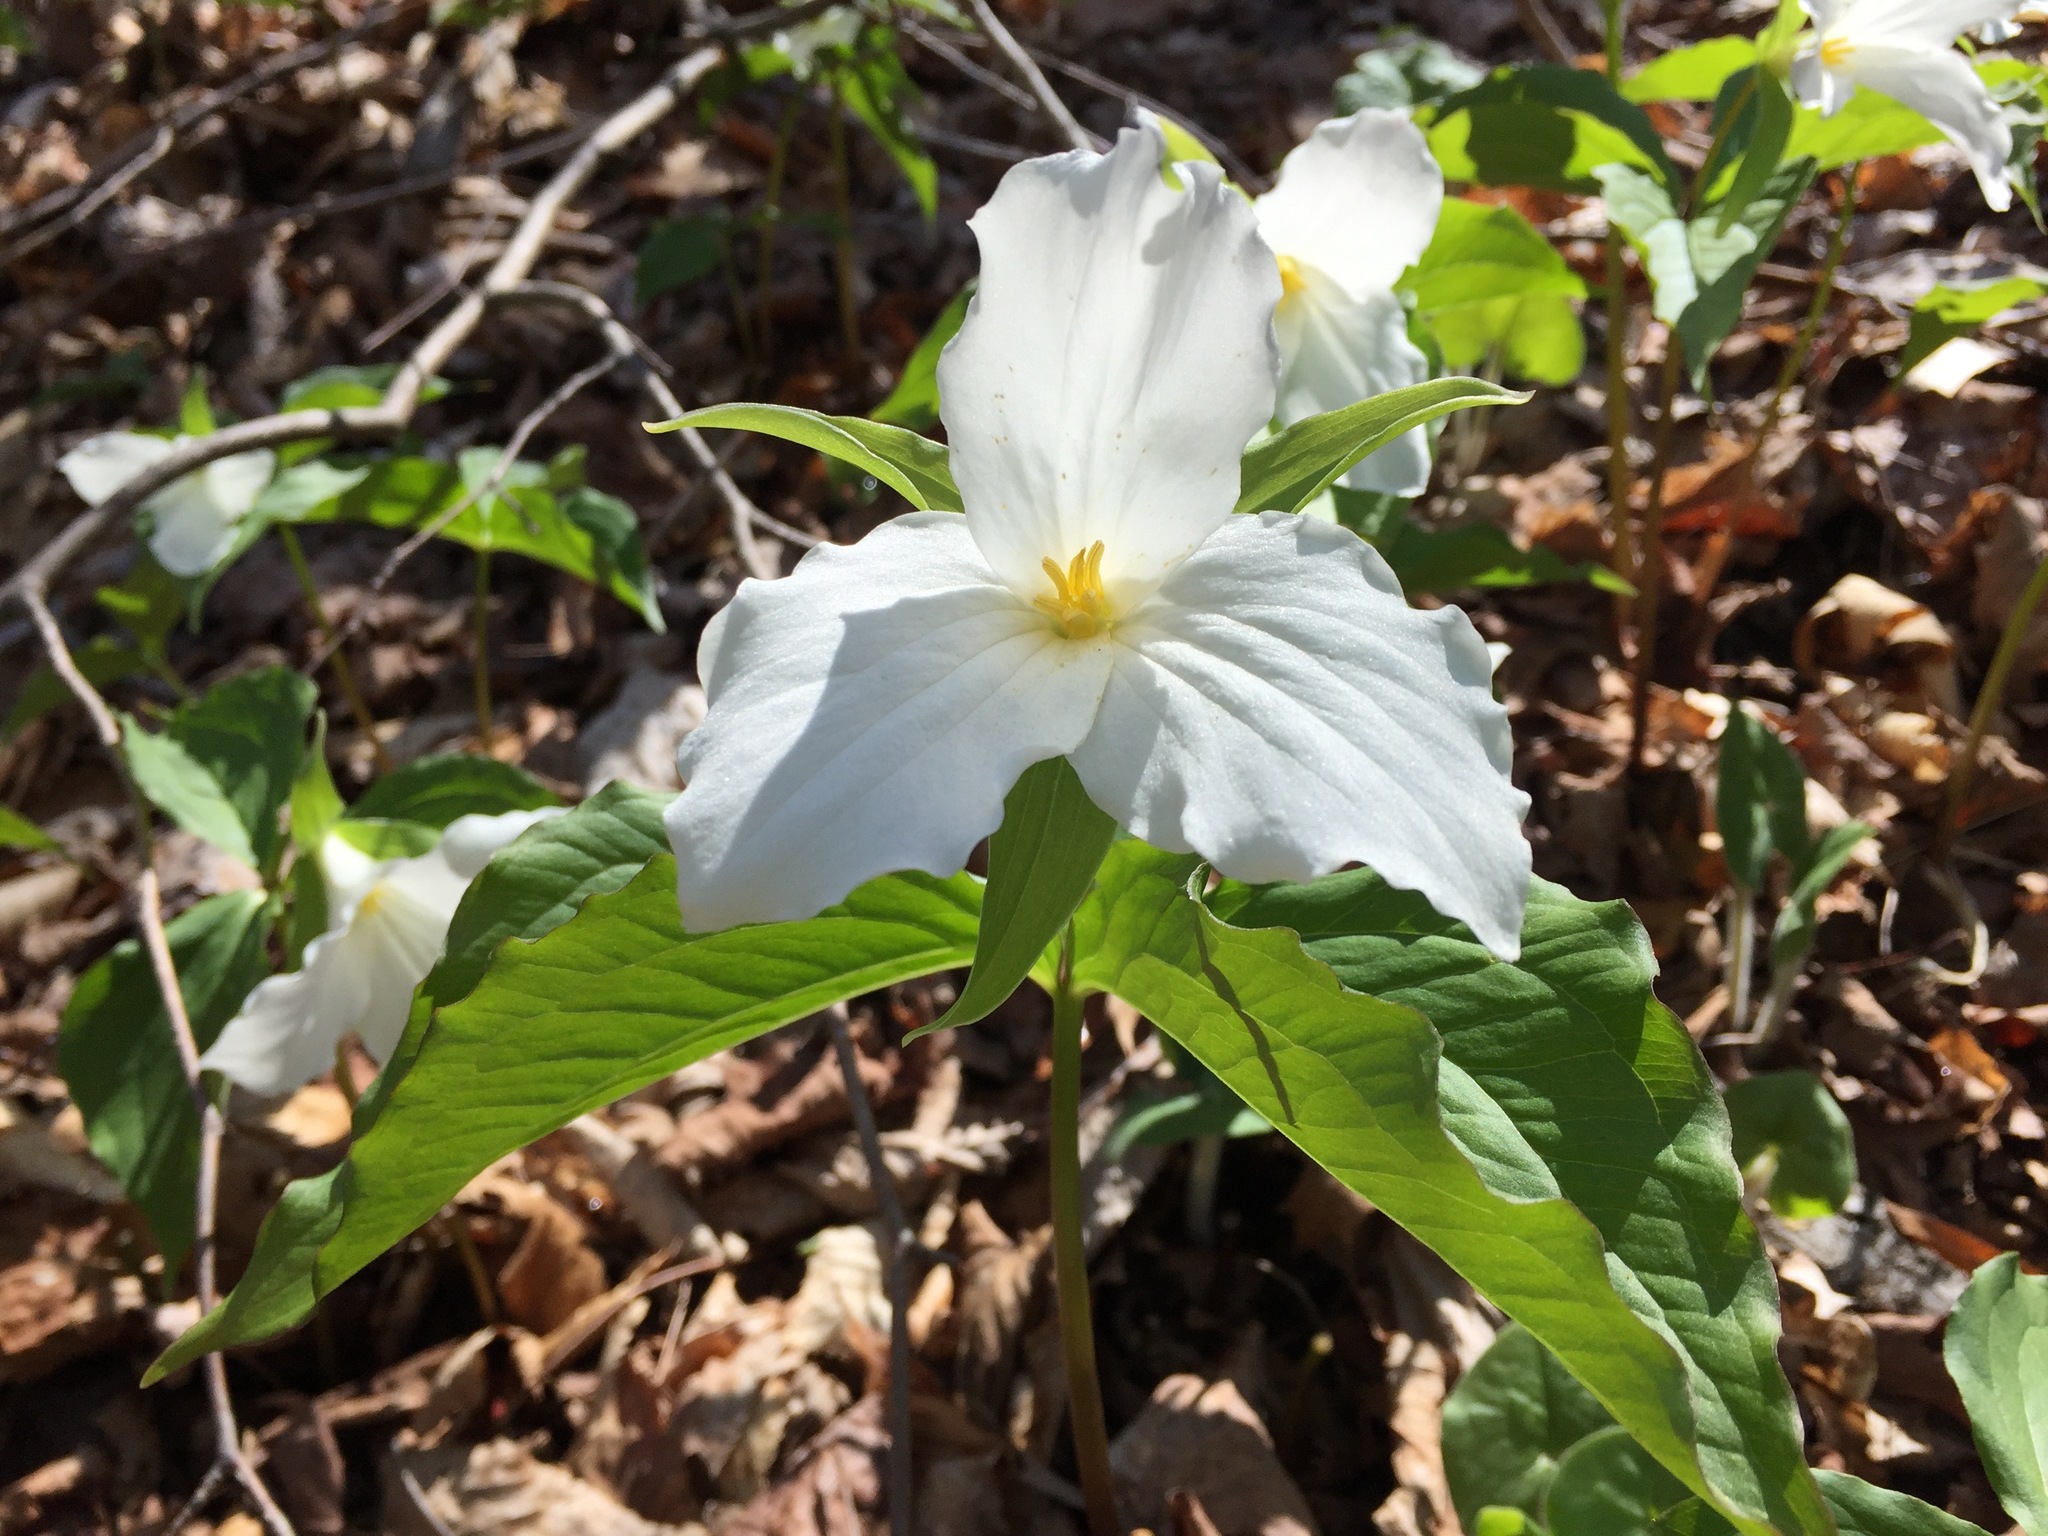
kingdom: Plantae
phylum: Tracheophyta
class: Liliopsida
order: Liliales
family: Melanthiaceae
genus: Trillium
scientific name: Trillium grandiflorum
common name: Great white trillium
